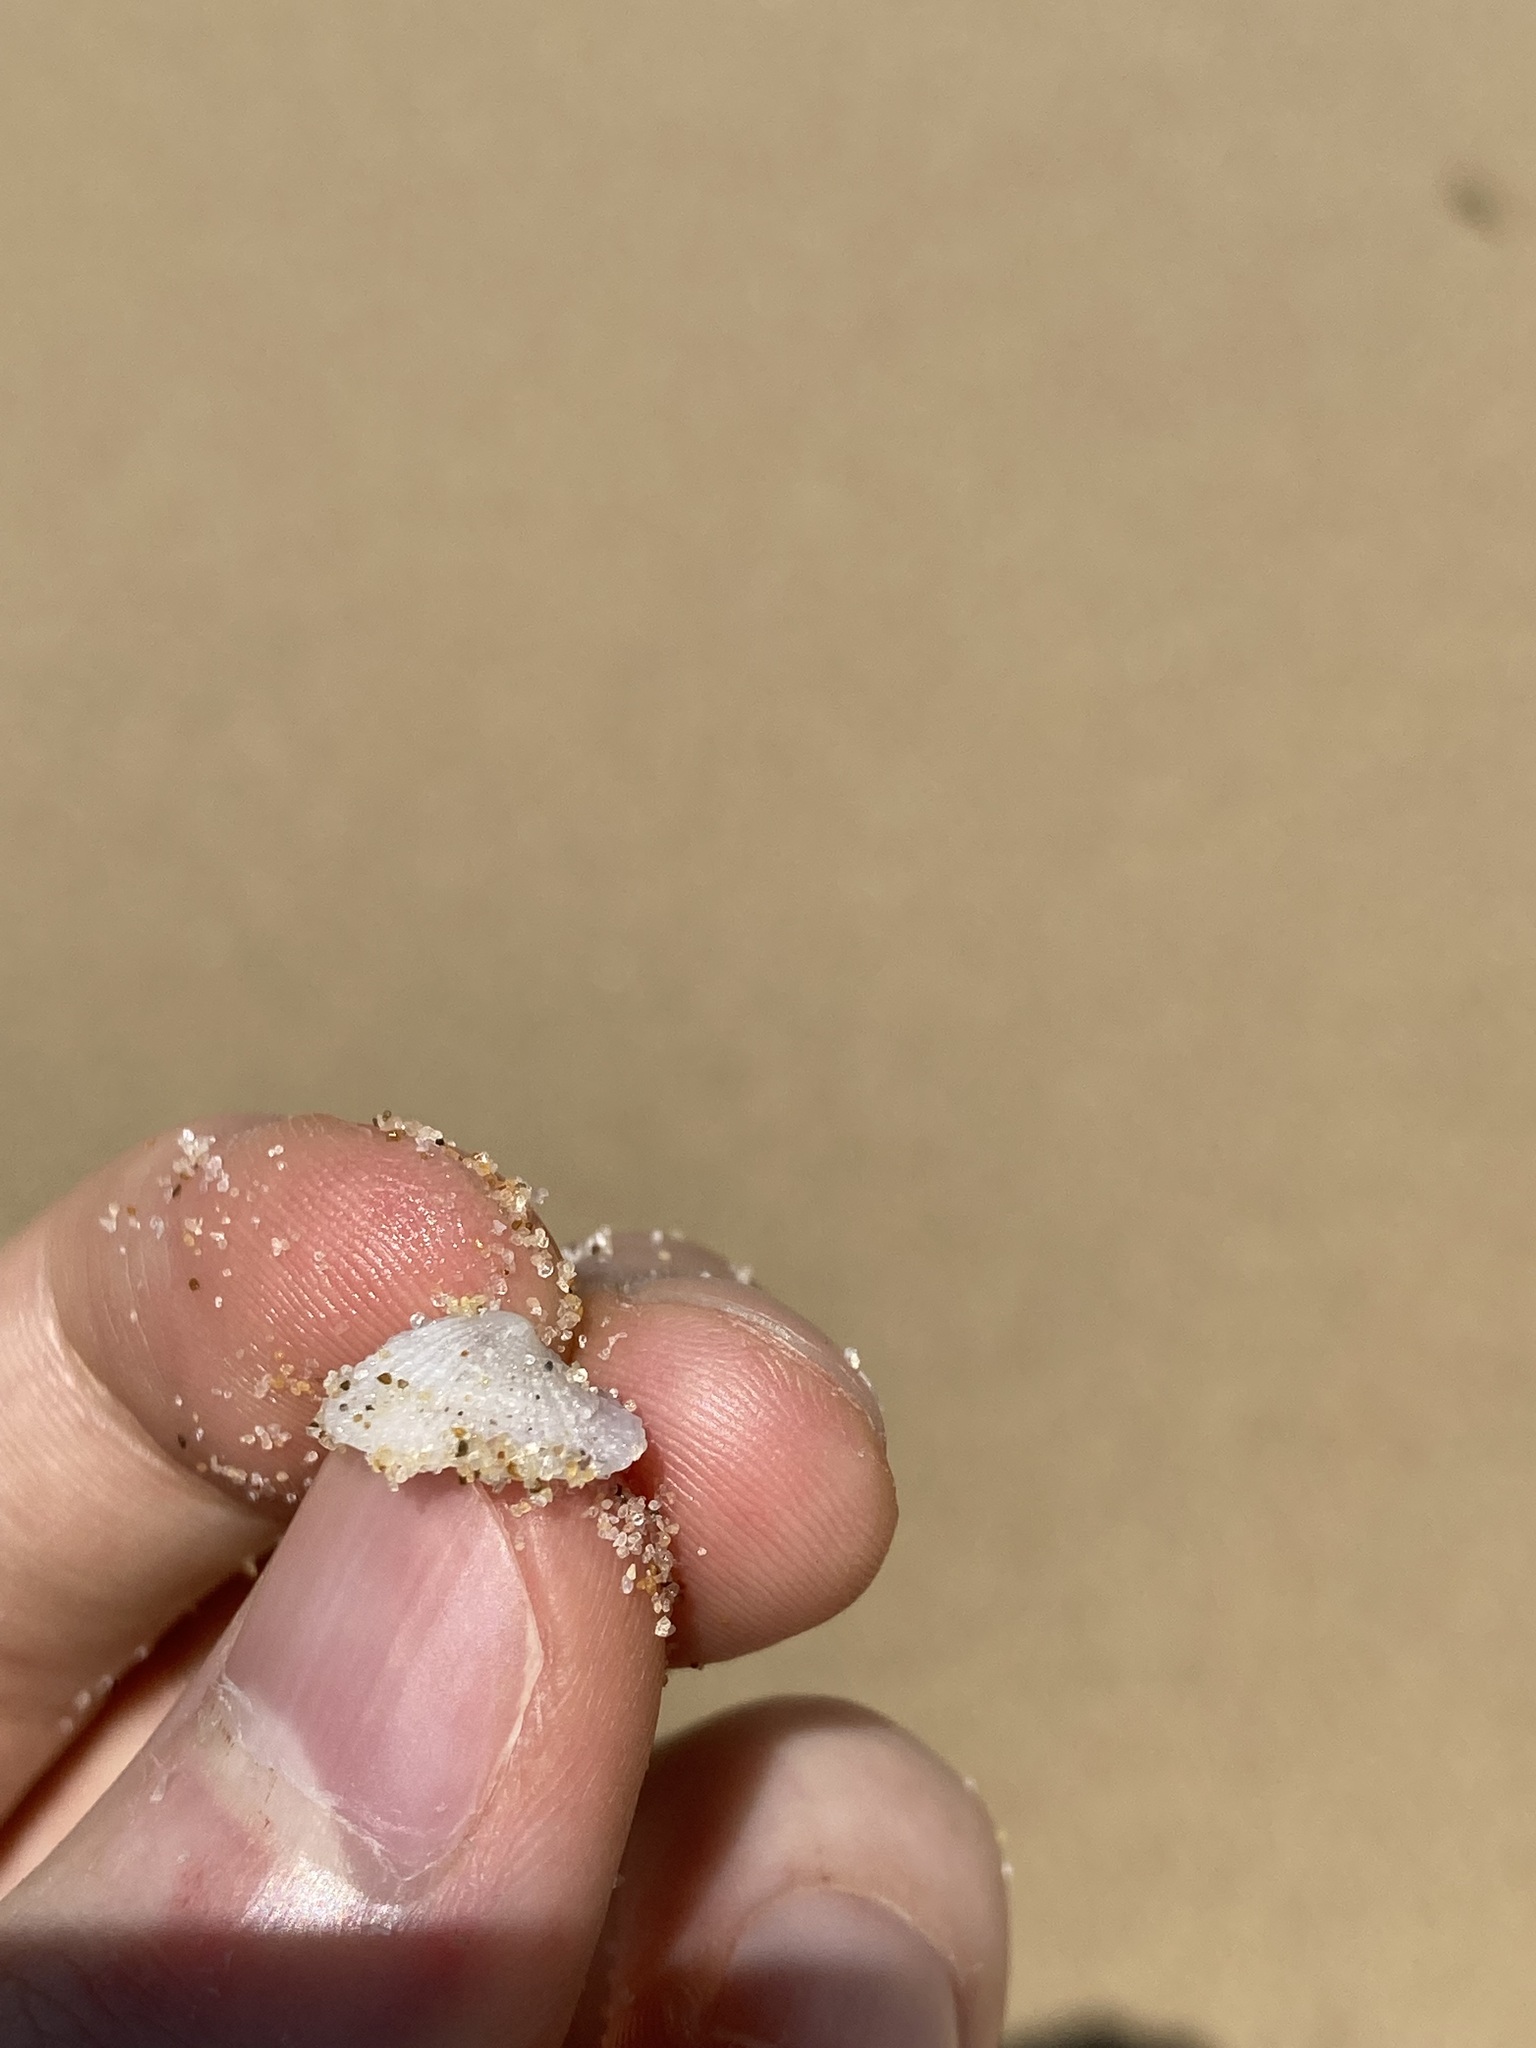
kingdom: Animalia
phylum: Mollusca
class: Gastropoda
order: Lepetellida
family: Fissurellidae
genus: Emarginula
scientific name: Emarginula candida
